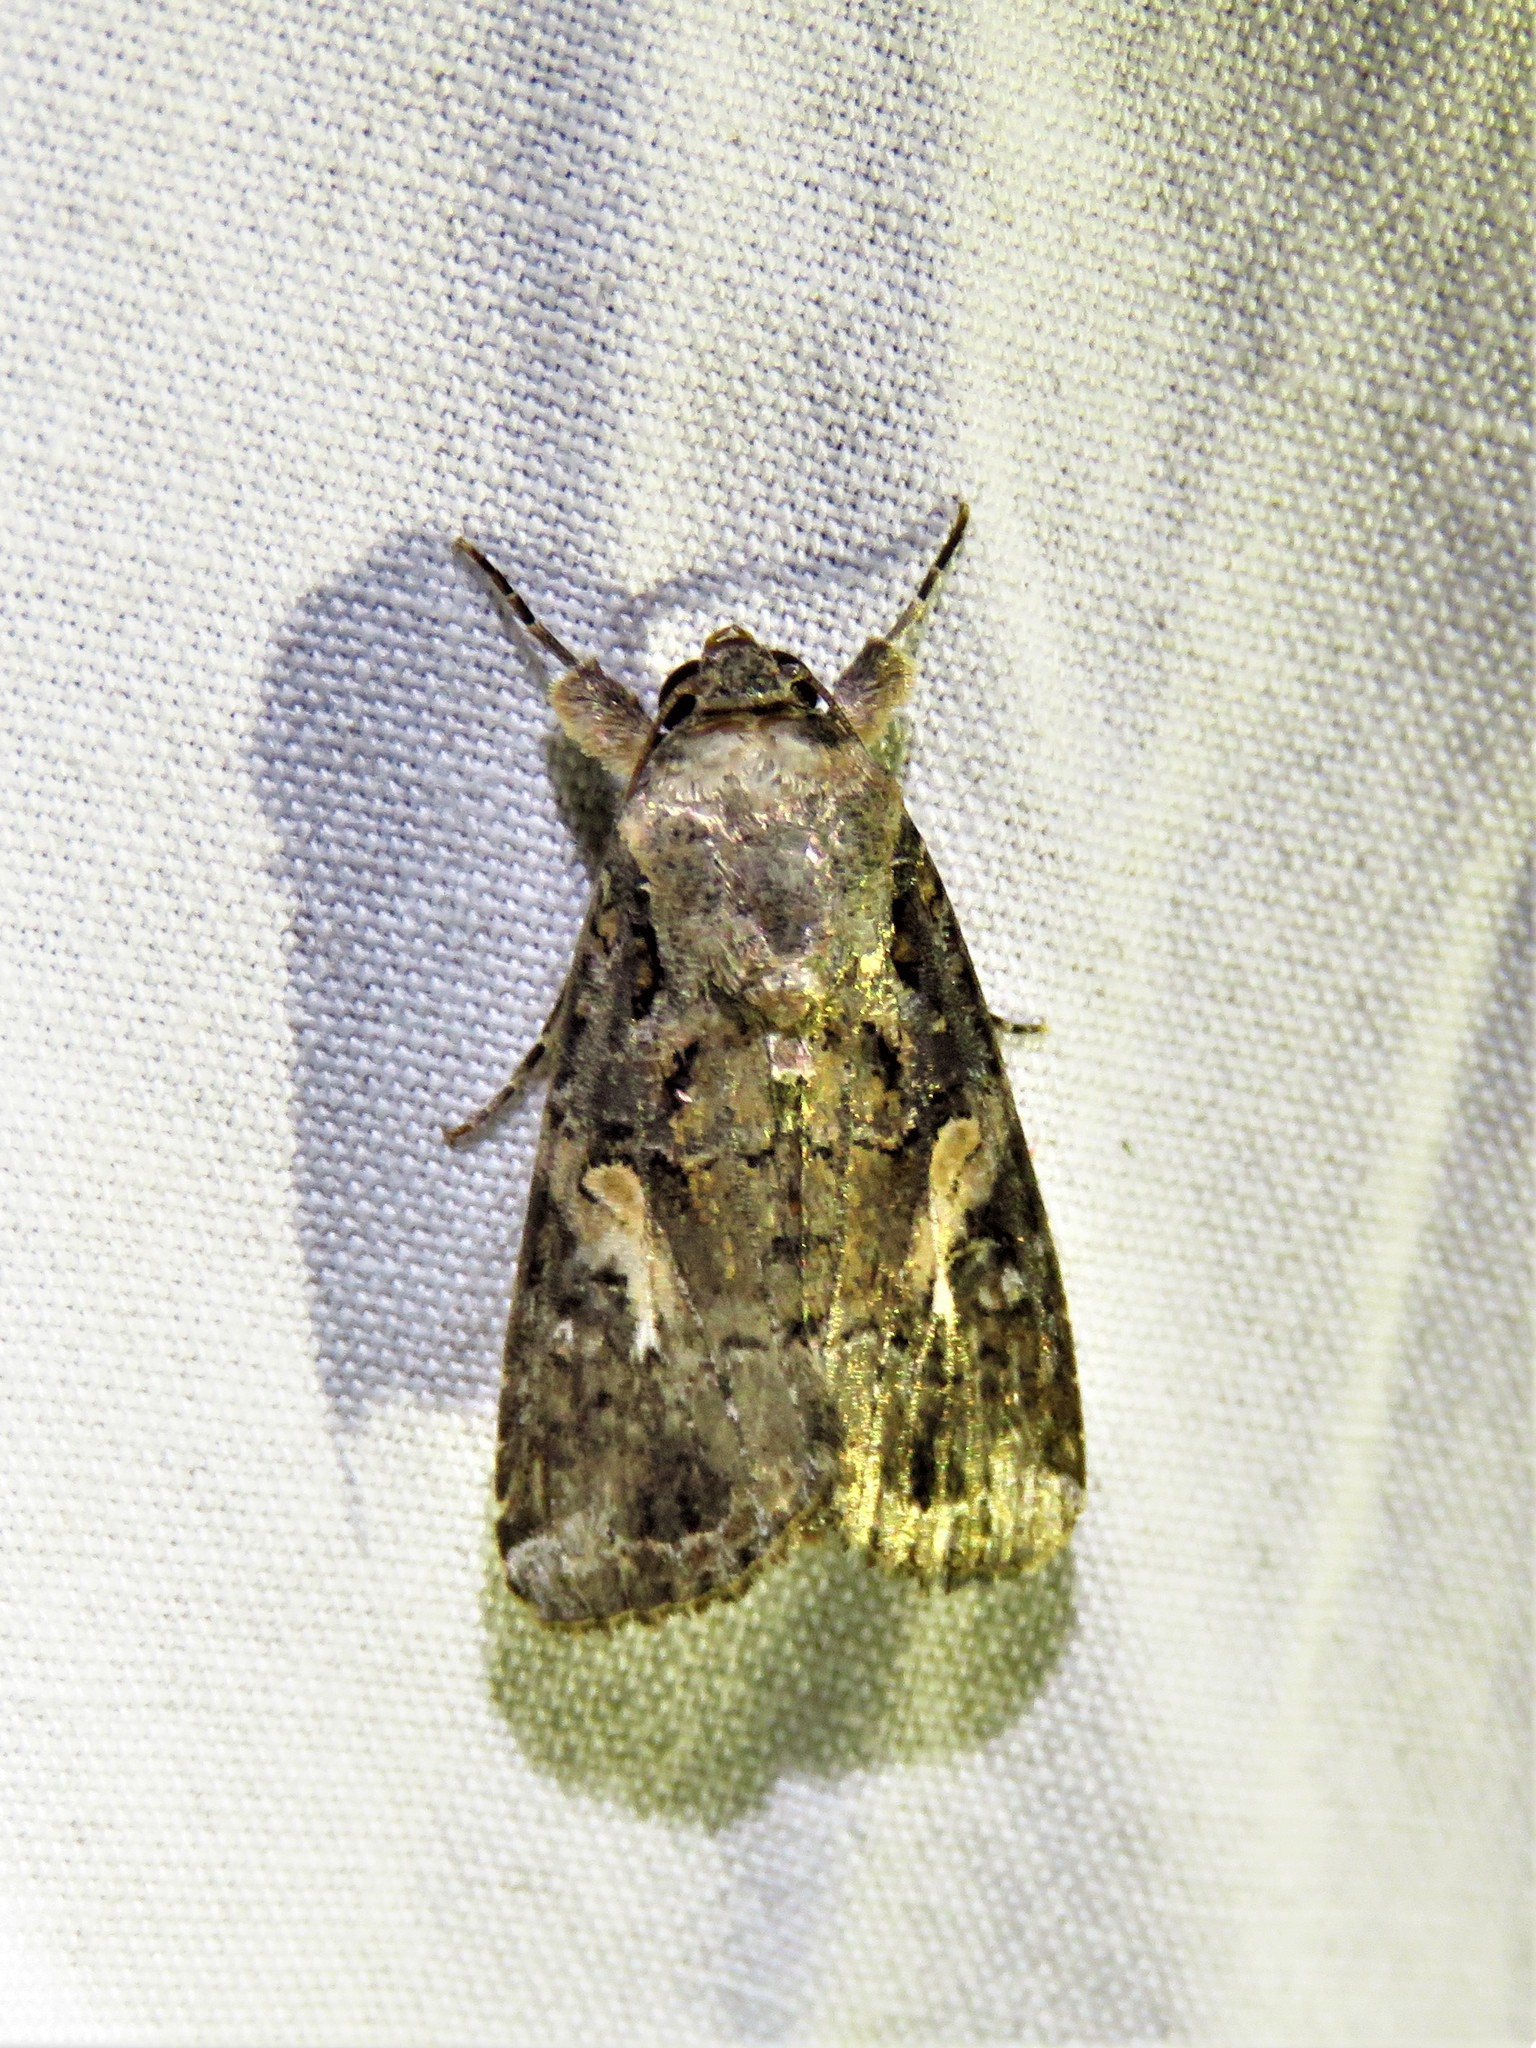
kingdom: Animalia
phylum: Arthropoda
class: Insecta
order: Lepidoptera
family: Noctuidae
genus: Spodoptera
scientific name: Spodoptera frugiperda
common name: Fall armyworm
